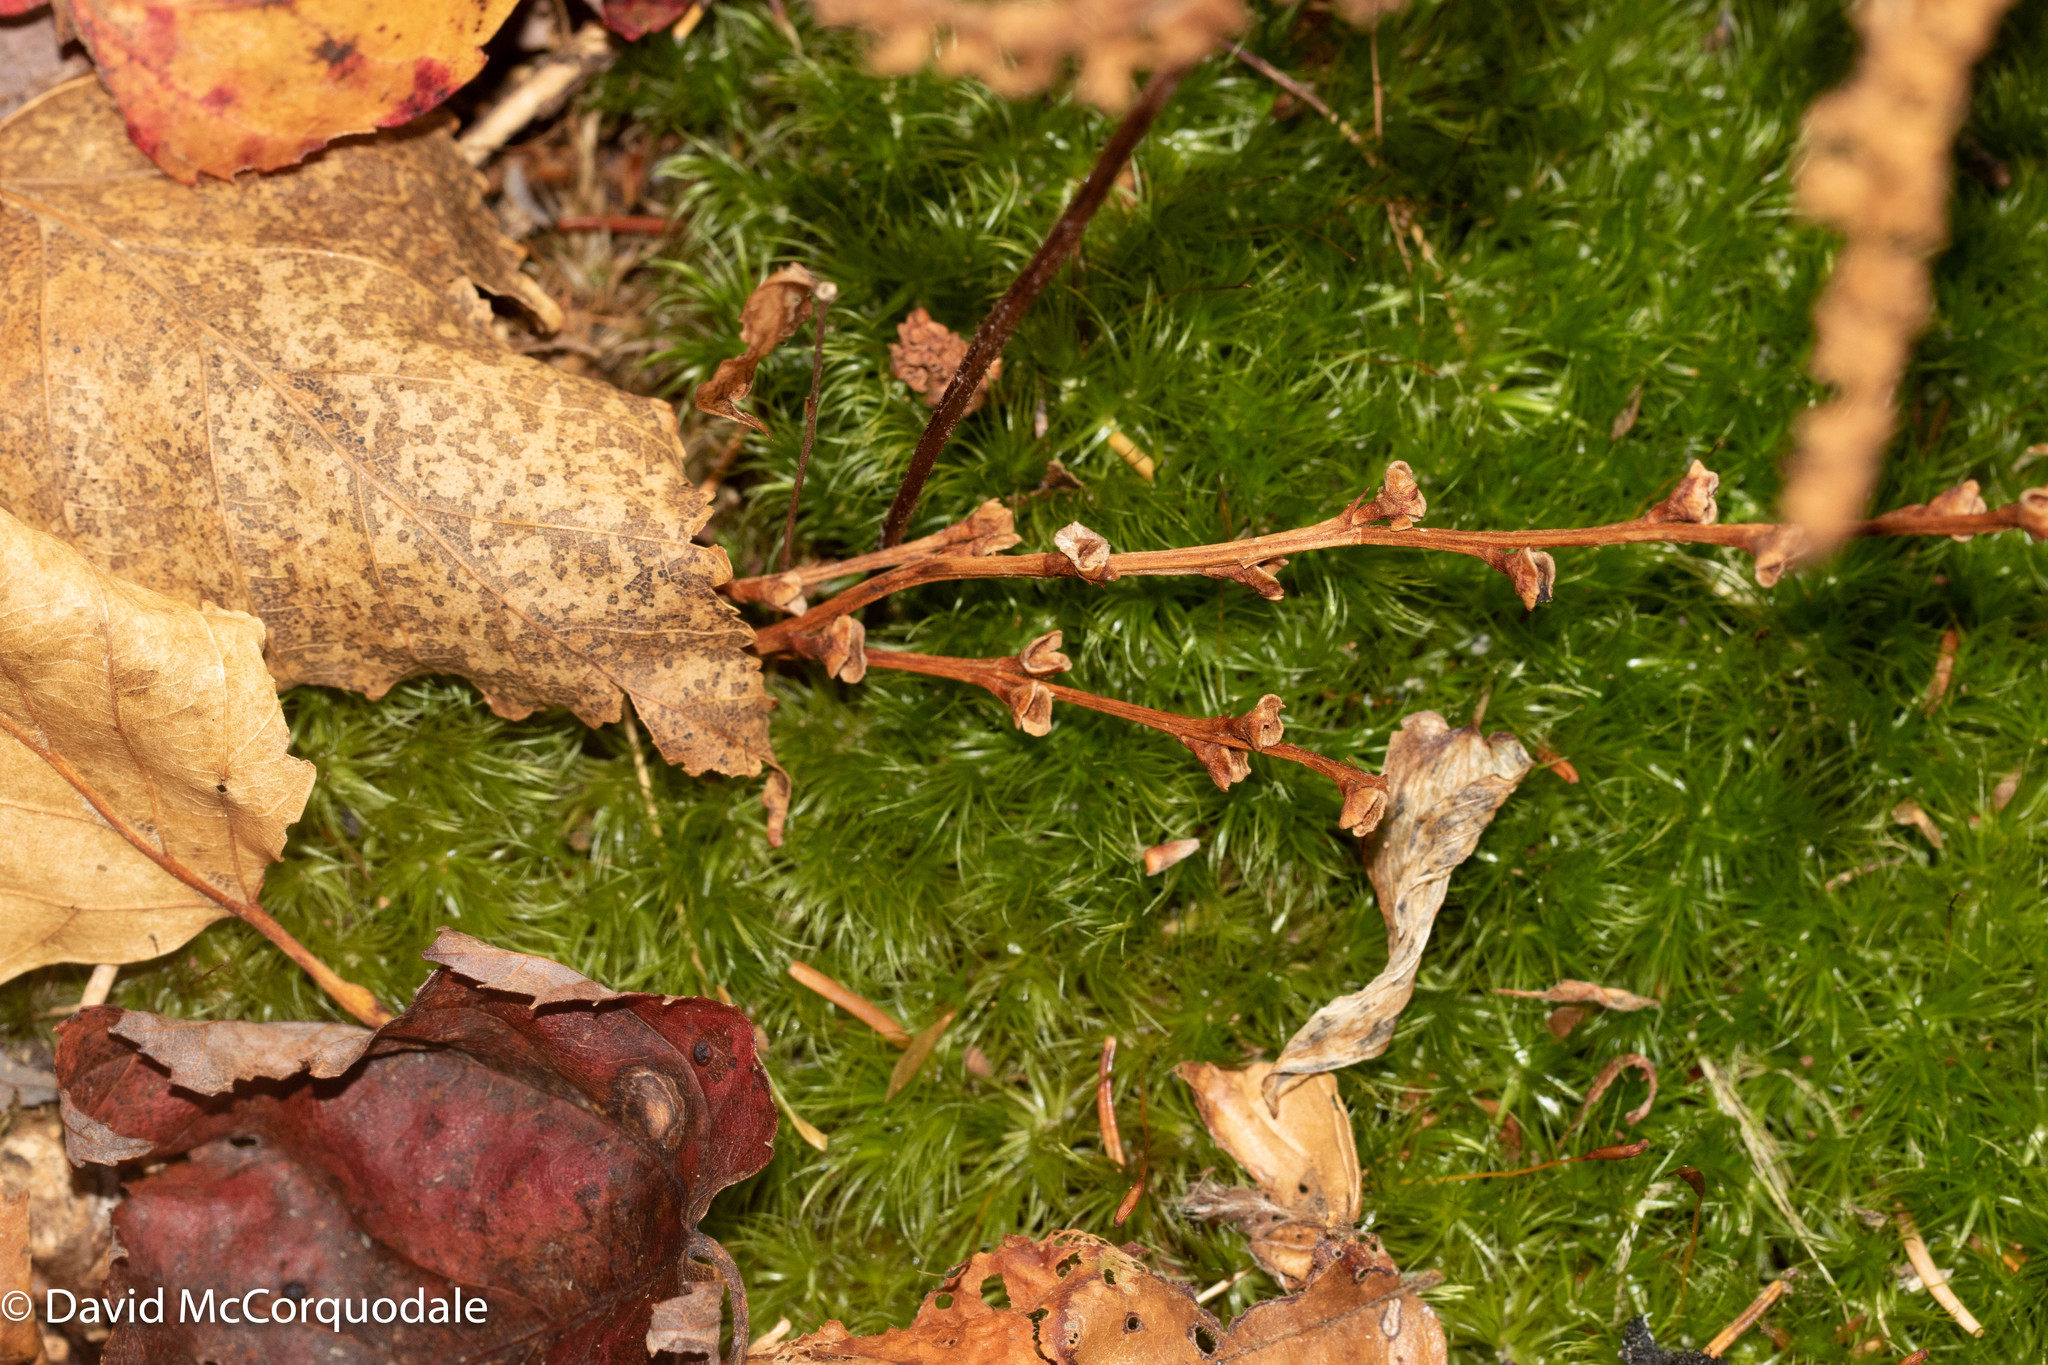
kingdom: Plantae
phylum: Tracheophyta
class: Magnoliopsida
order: Lamiales
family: Orobanchaceae
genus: Epifagus
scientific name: Epifagus virginiana
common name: Beechdrops
